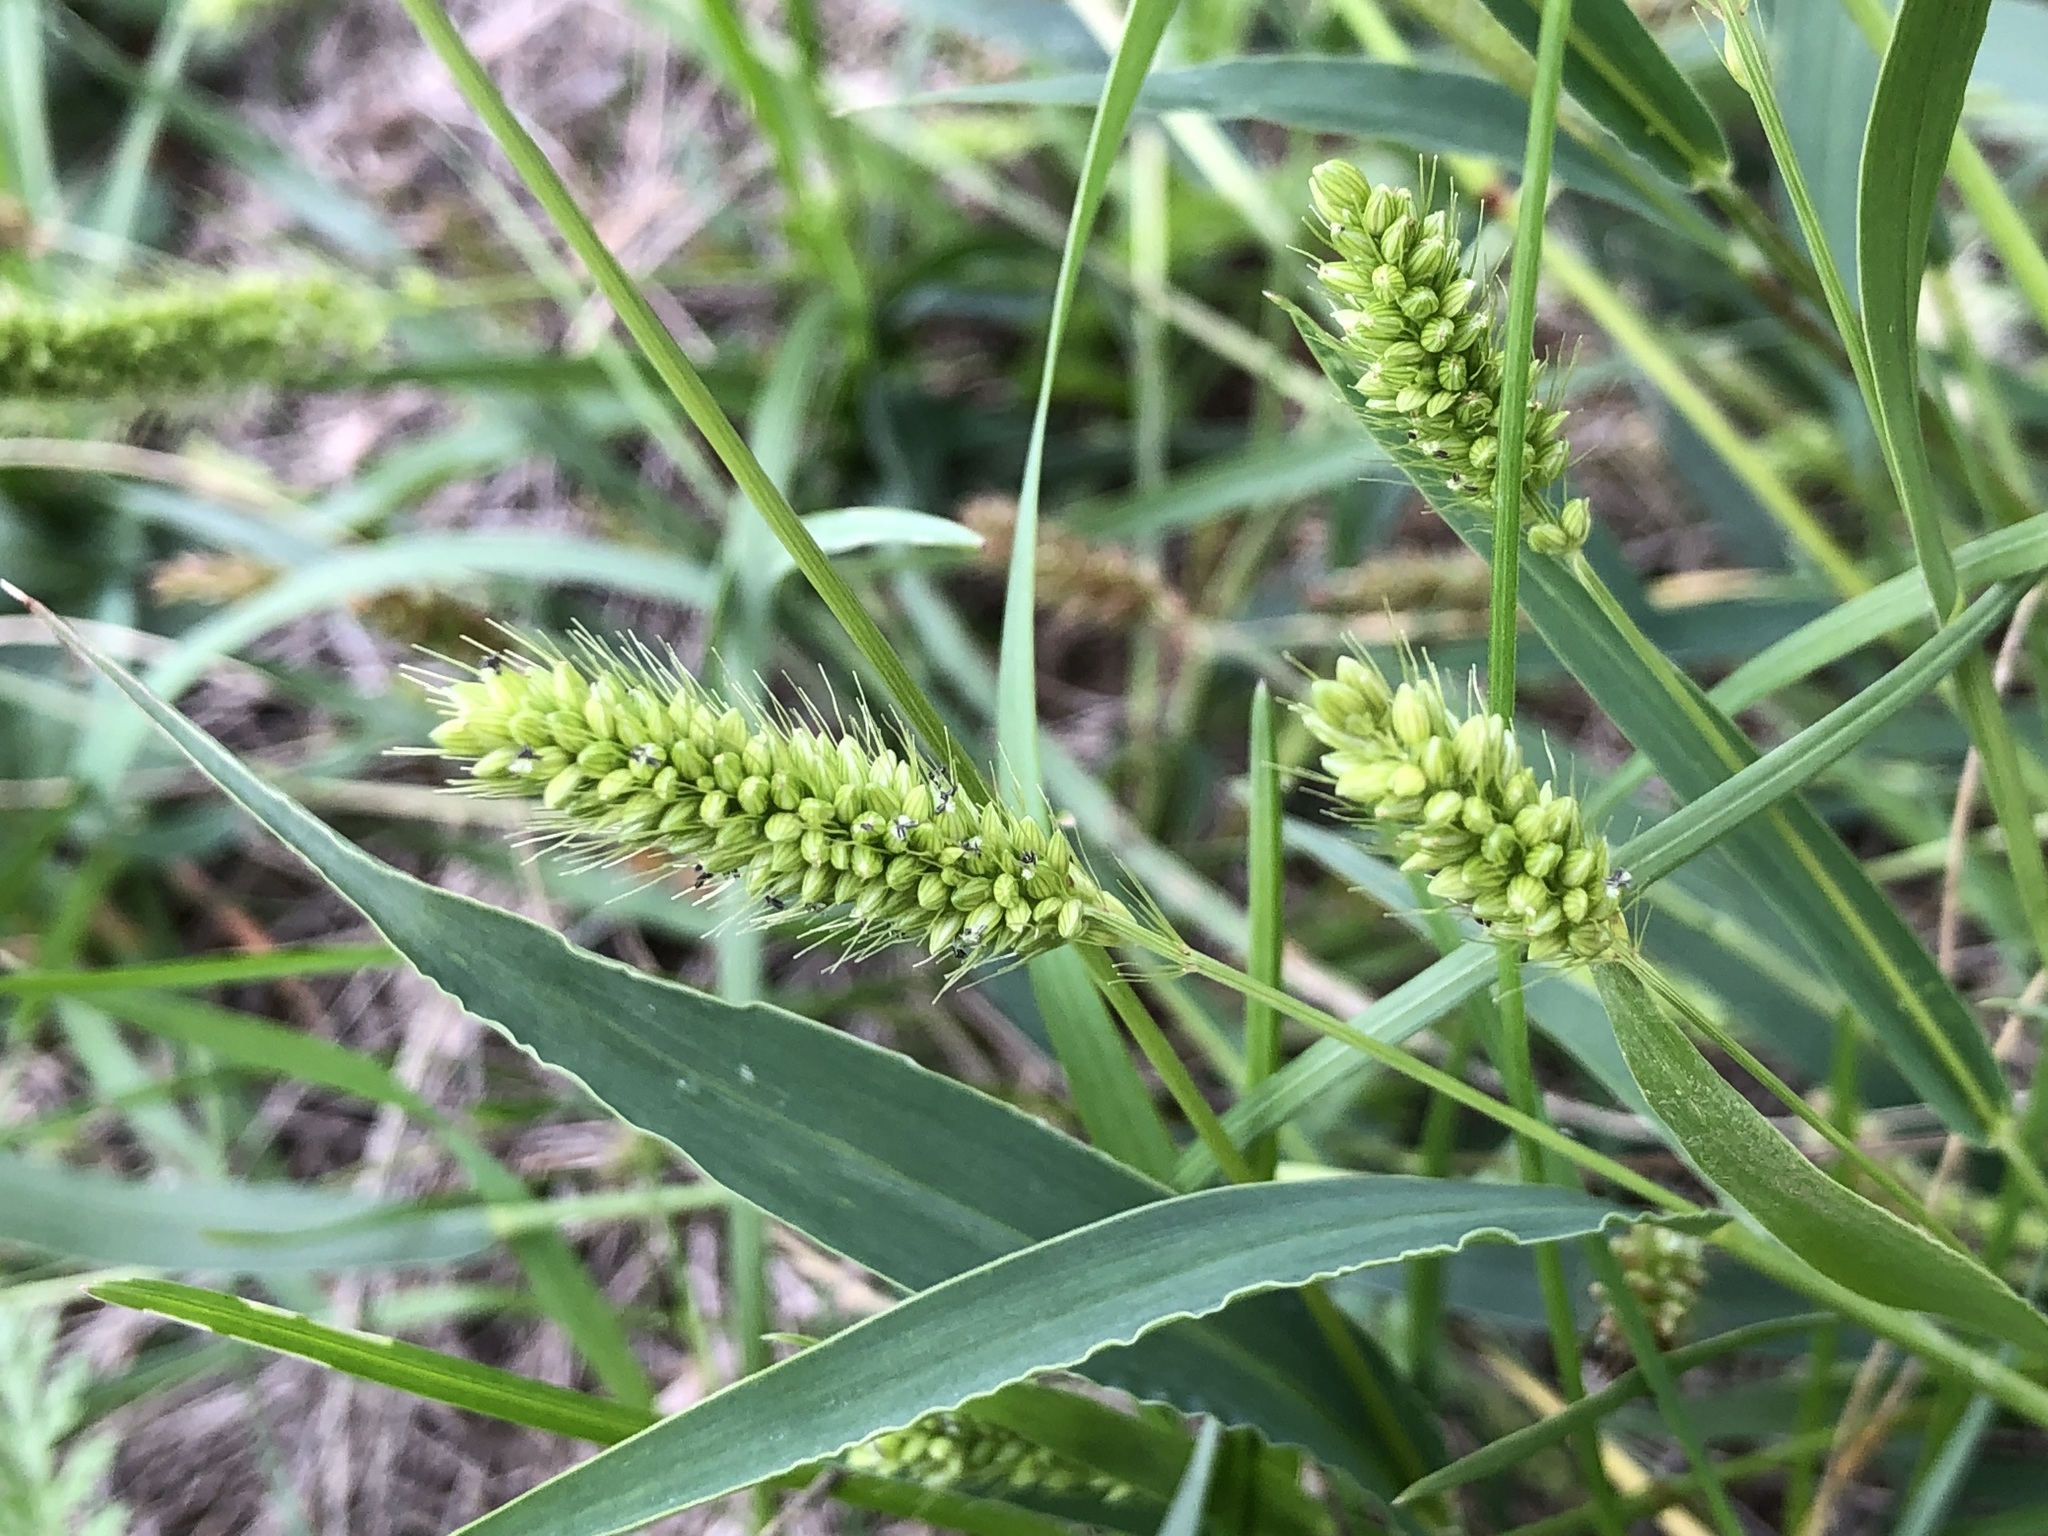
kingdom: Plantae
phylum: Tracheophyta
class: Liliopsida
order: Poales
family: Poaceae
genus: Setaria
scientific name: Setaria viridis
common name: Green bristlegrass
